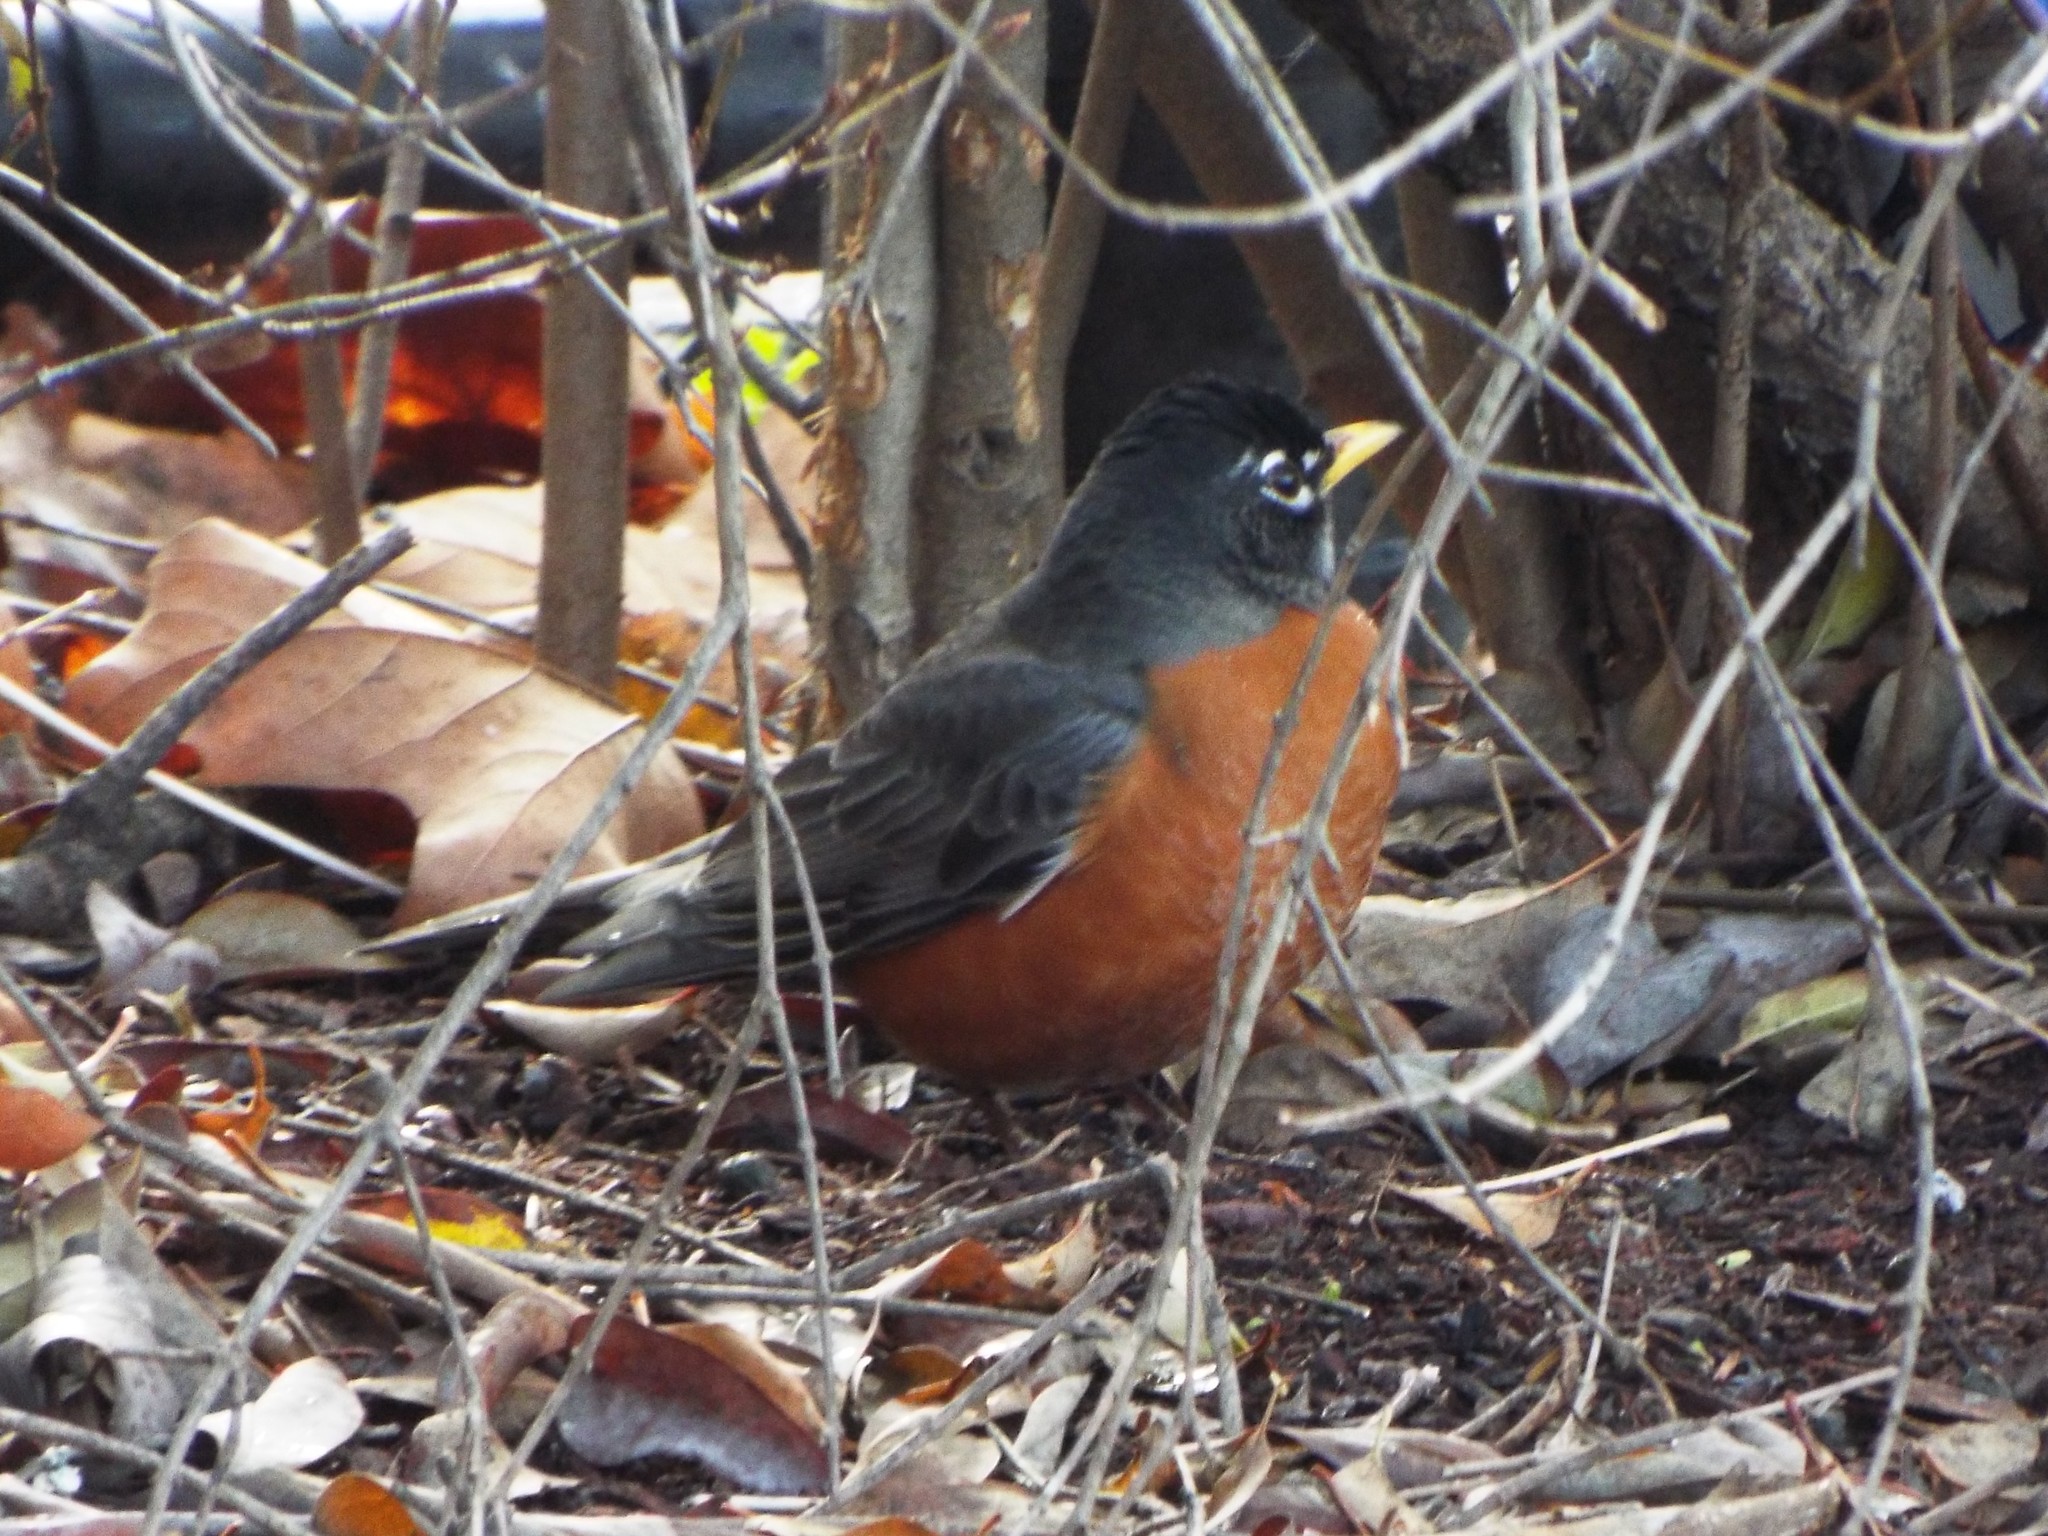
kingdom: Animalia
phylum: Chordata
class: Aves
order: Passeriformes
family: Turdidae
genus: Turdus
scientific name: Turdus migratorius
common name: American robin
